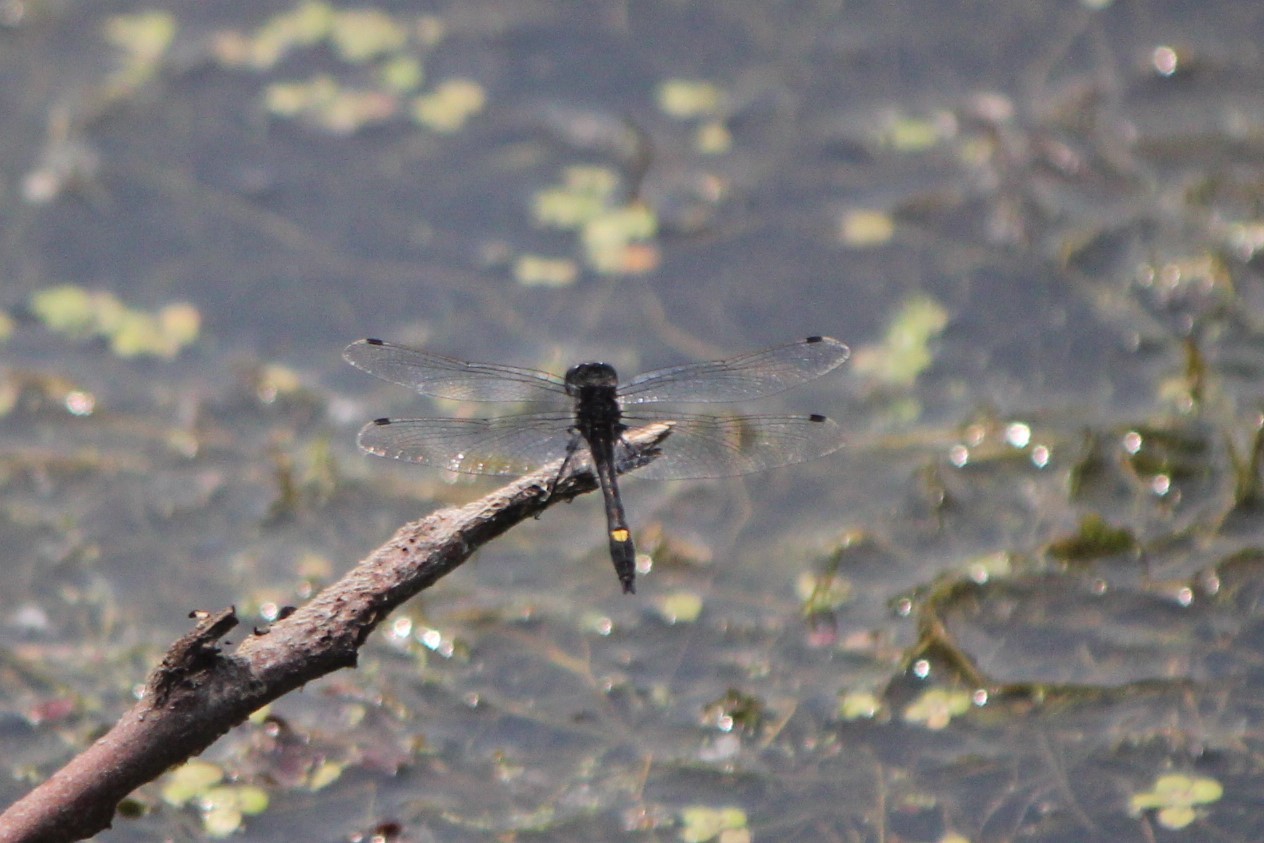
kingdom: Animalia
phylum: Arthropoda
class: Insecta
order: Odonata
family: Libellulidae
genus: Leucorrhinia
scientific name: Leucorrhinia intacta
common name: Dot-tailed whiteface
